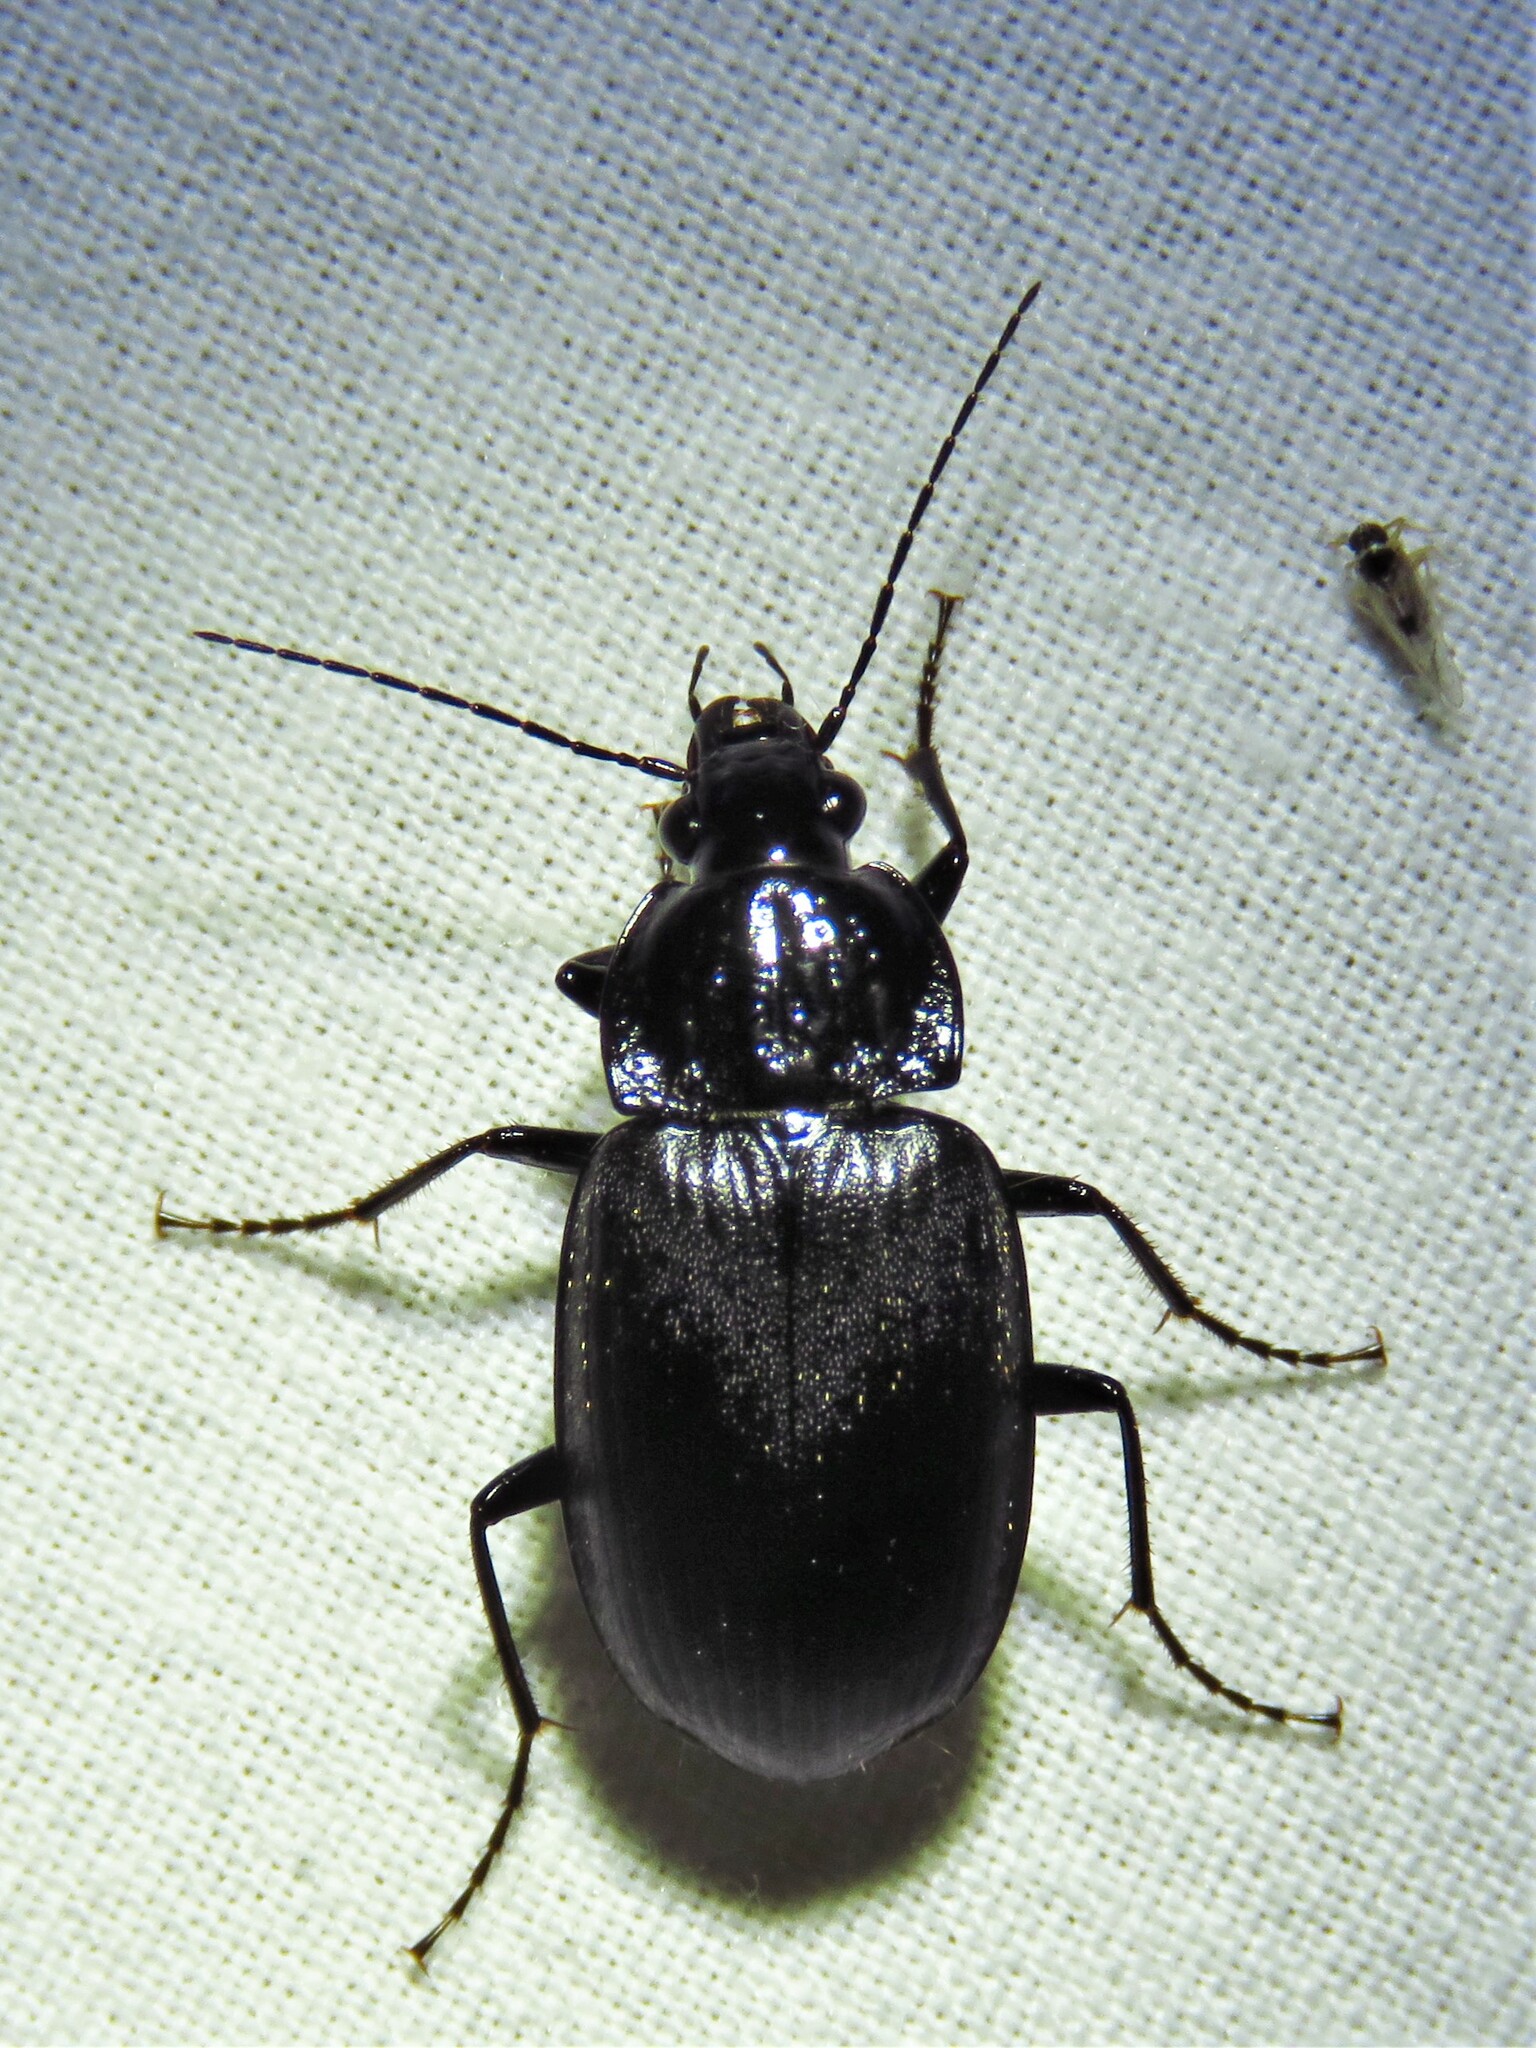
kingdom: Animalia
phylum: Arthropoda
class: Insecta
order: Coleoptera
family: Carabidae
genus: Chlaenius
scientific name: Chlaenius niger
